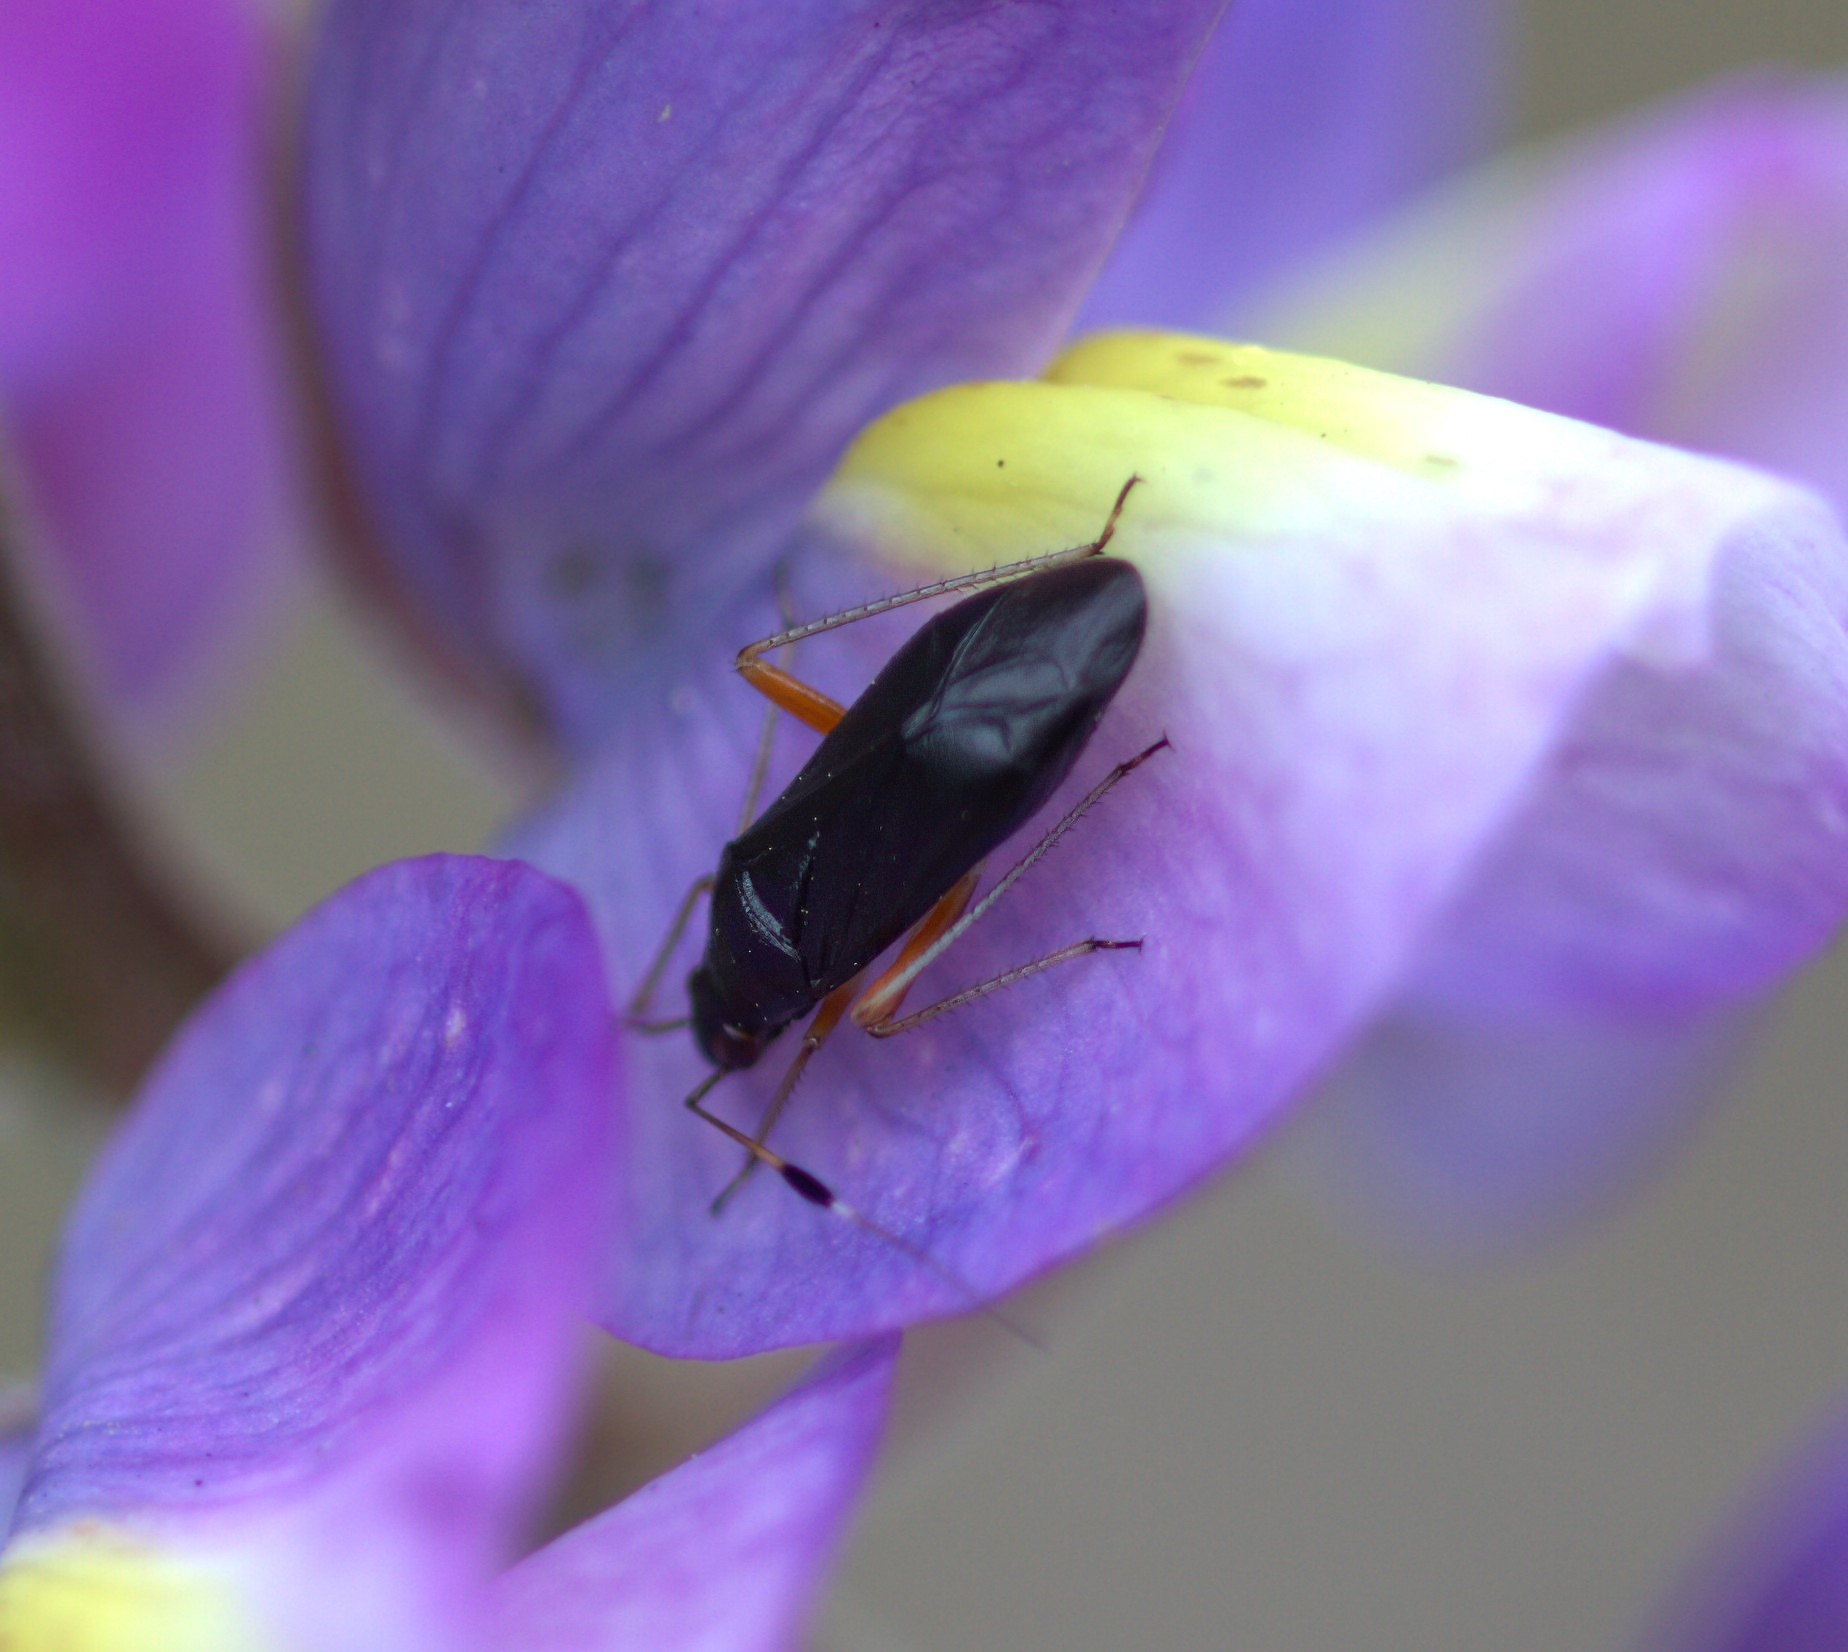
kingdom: Animalia
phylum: Arthropoda
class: Insecta
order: Hemiptera
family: Miridae
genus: Ectopiocerus
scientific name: Ectopiocerus anthracinus
